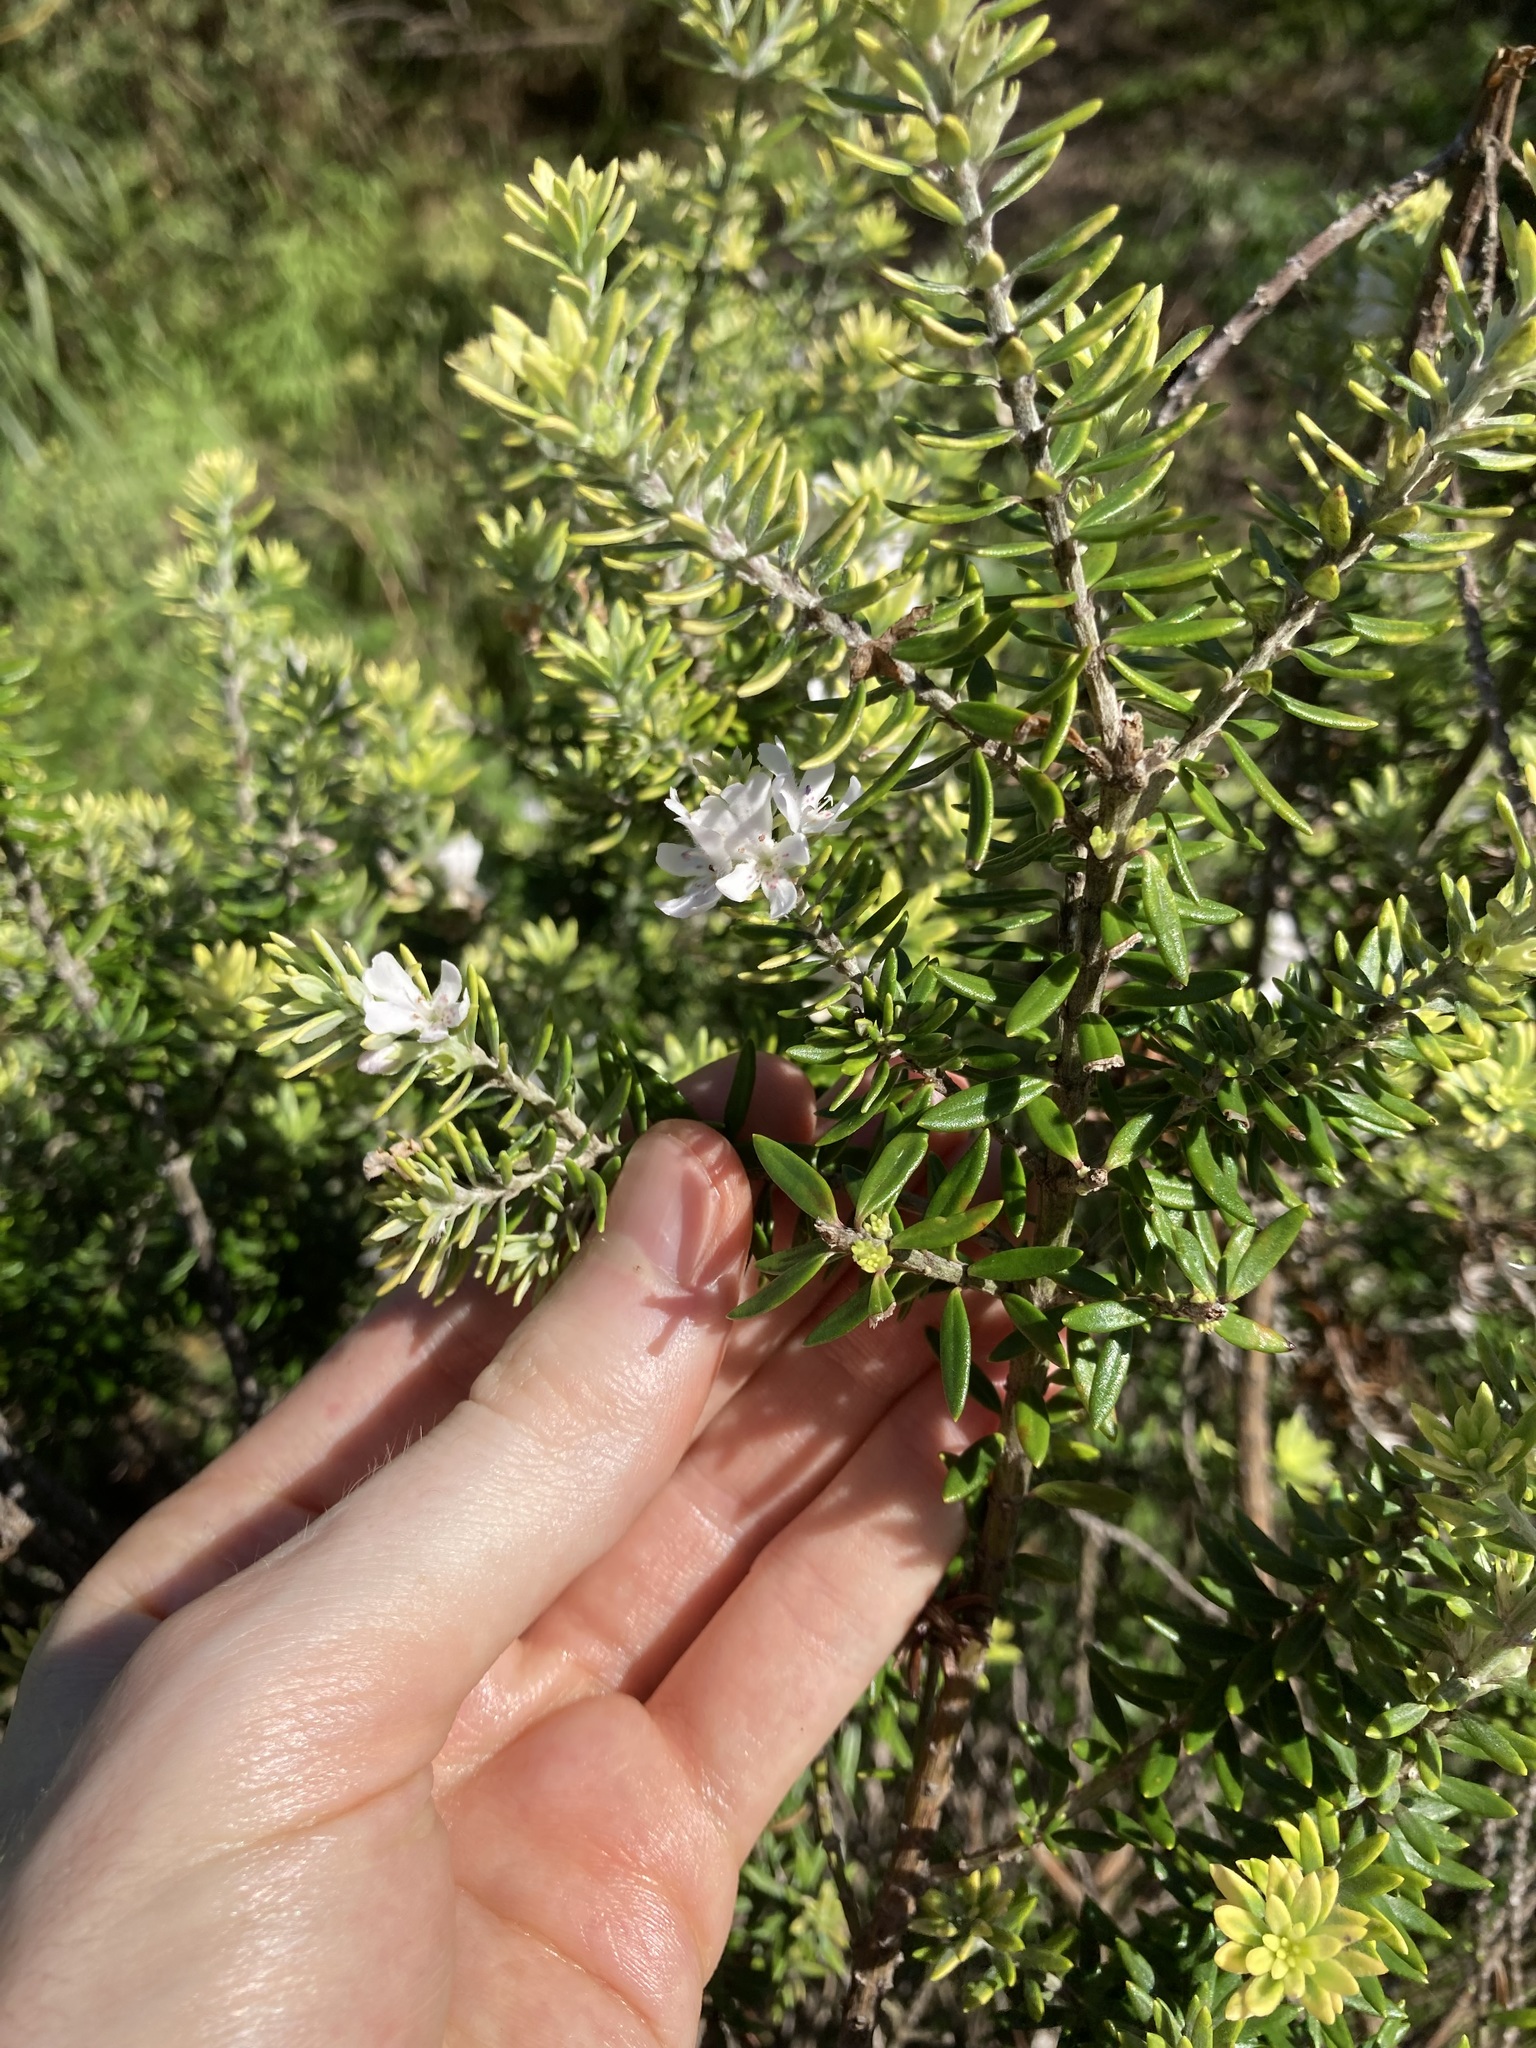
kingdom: Plantae
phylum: Tracheophyta
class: Magnoliopsida
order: Lamiales
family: Lamiaceae
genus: Westringia
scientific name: Westringia fruticosa
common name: Coastal-rosemary
